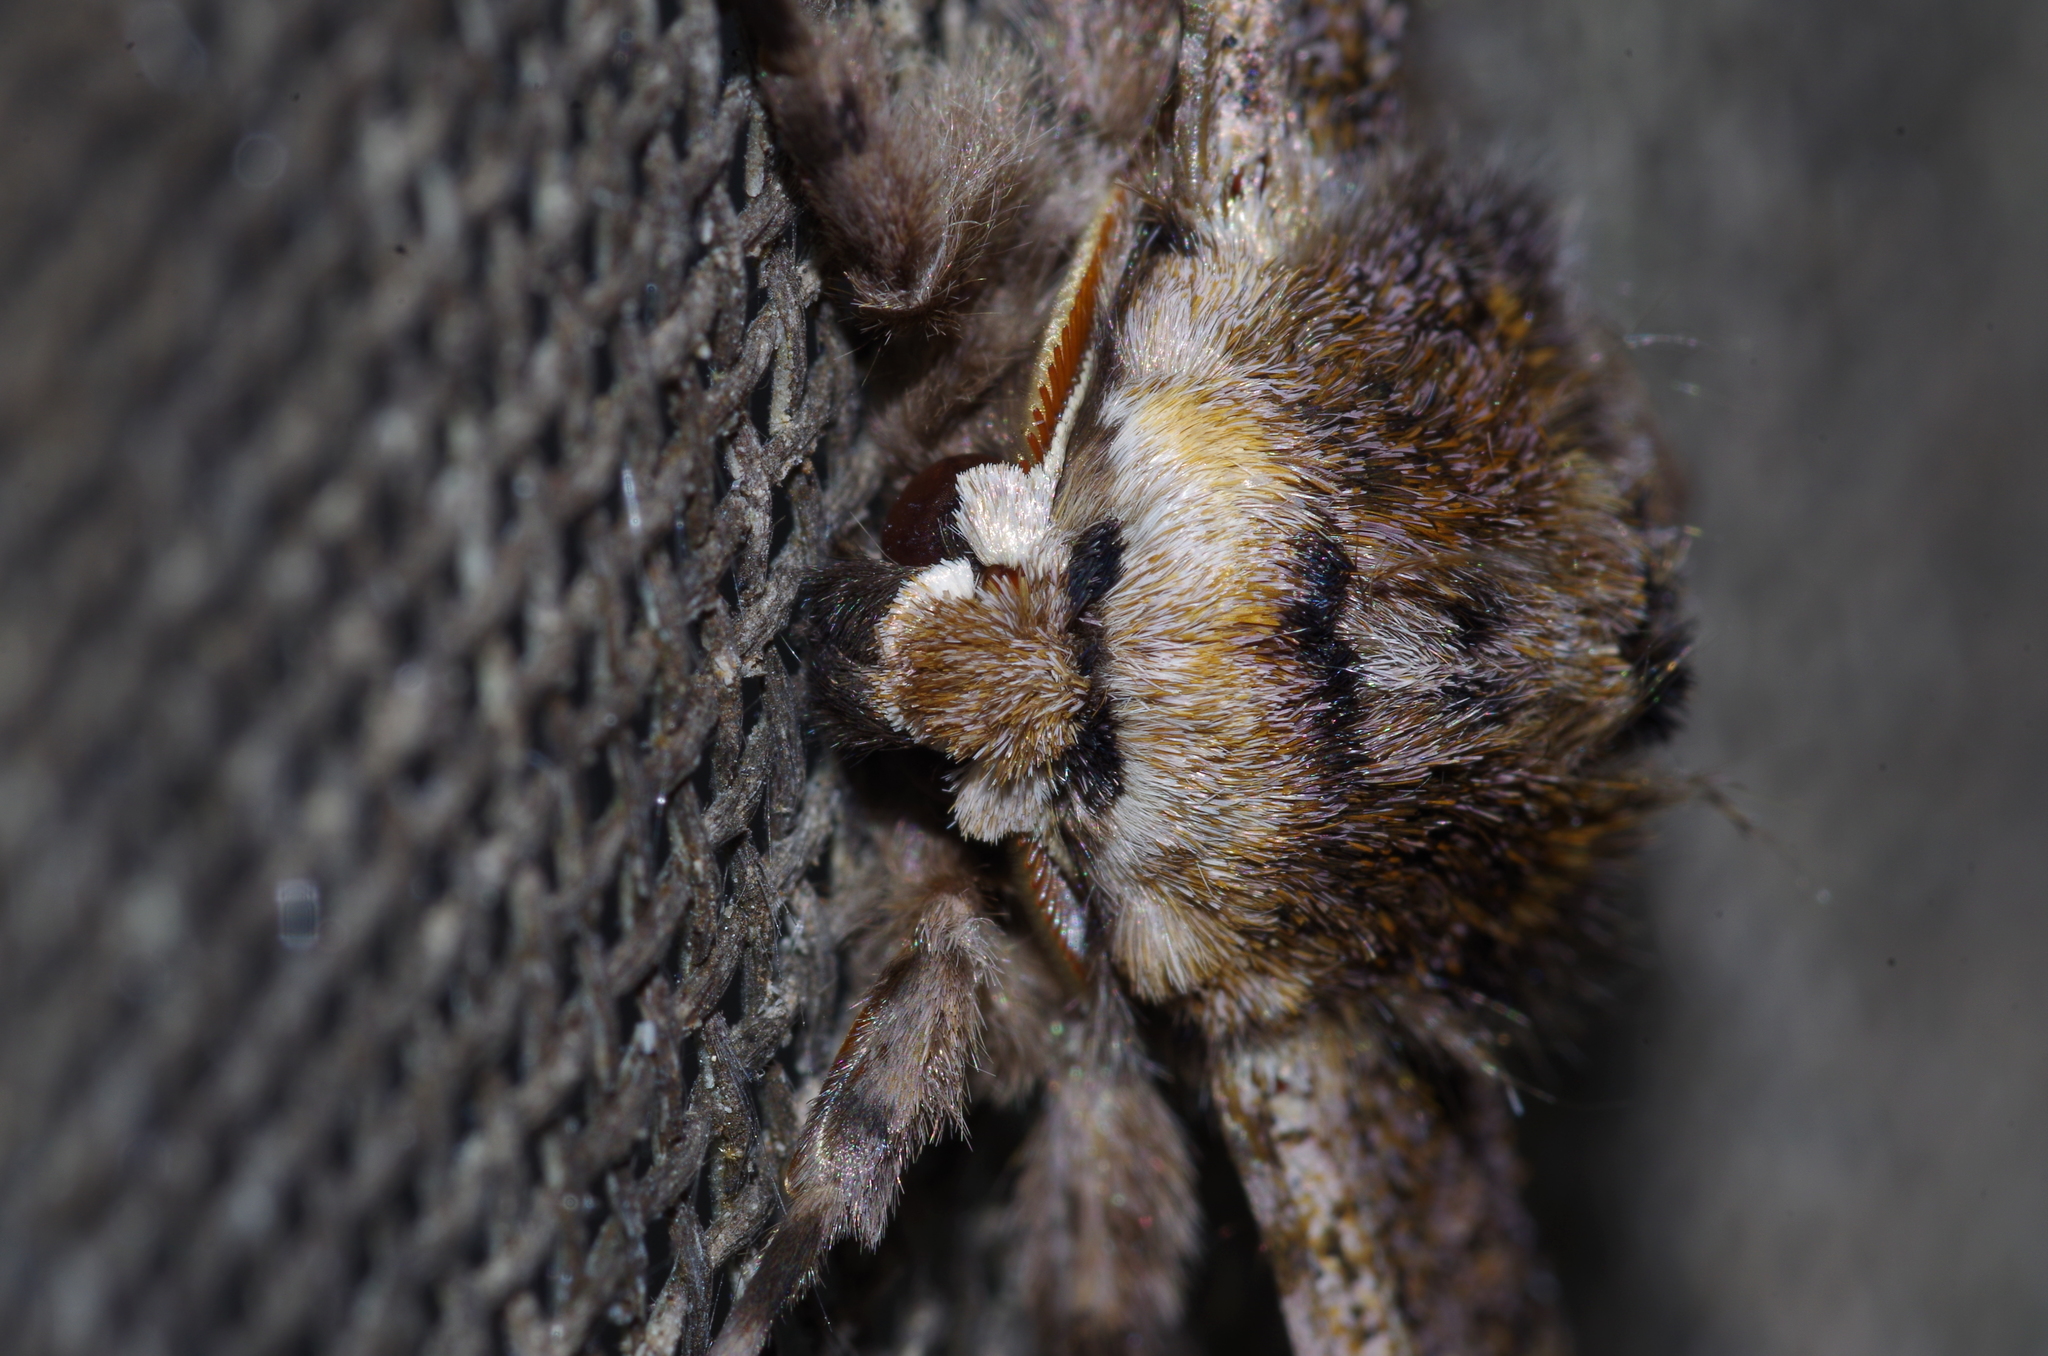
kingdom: Animalia
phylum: Arthropoda
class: Insecta
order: Lepidoptera
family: Geometridae
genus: Biston
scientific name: Biston robustum
